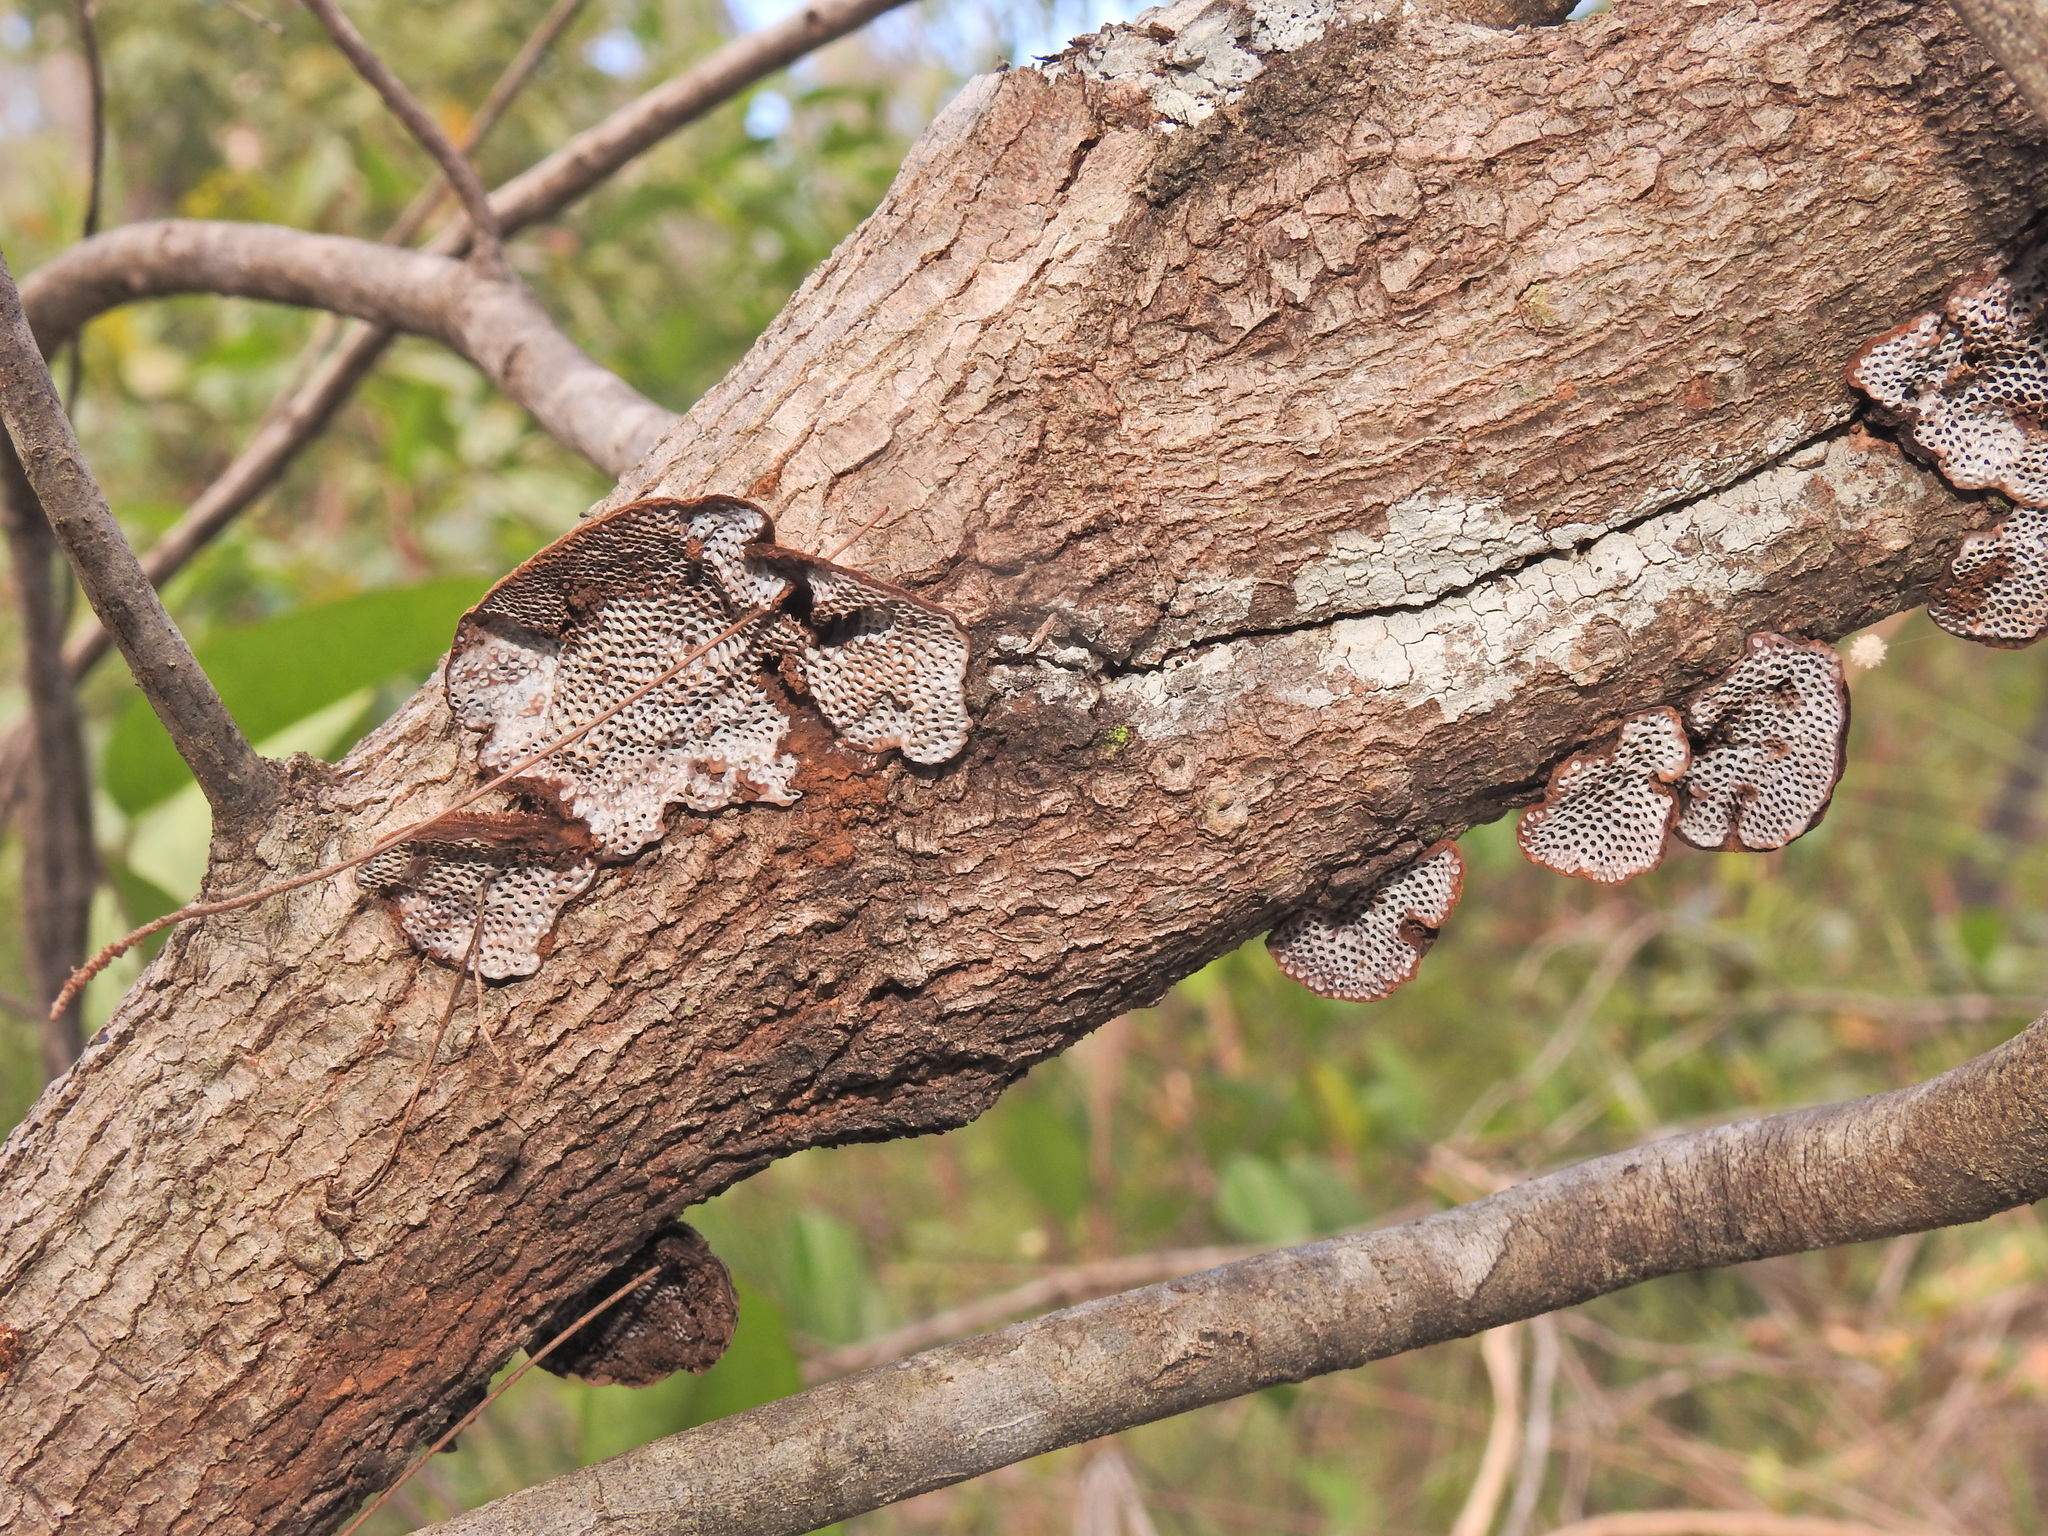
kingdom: Fungi
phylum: Basidiomycota
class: Agaricomycetes
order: Polyporales
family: Polyporaceae
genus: Phaeotrametes
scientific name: Phaeotrametes decipiens
